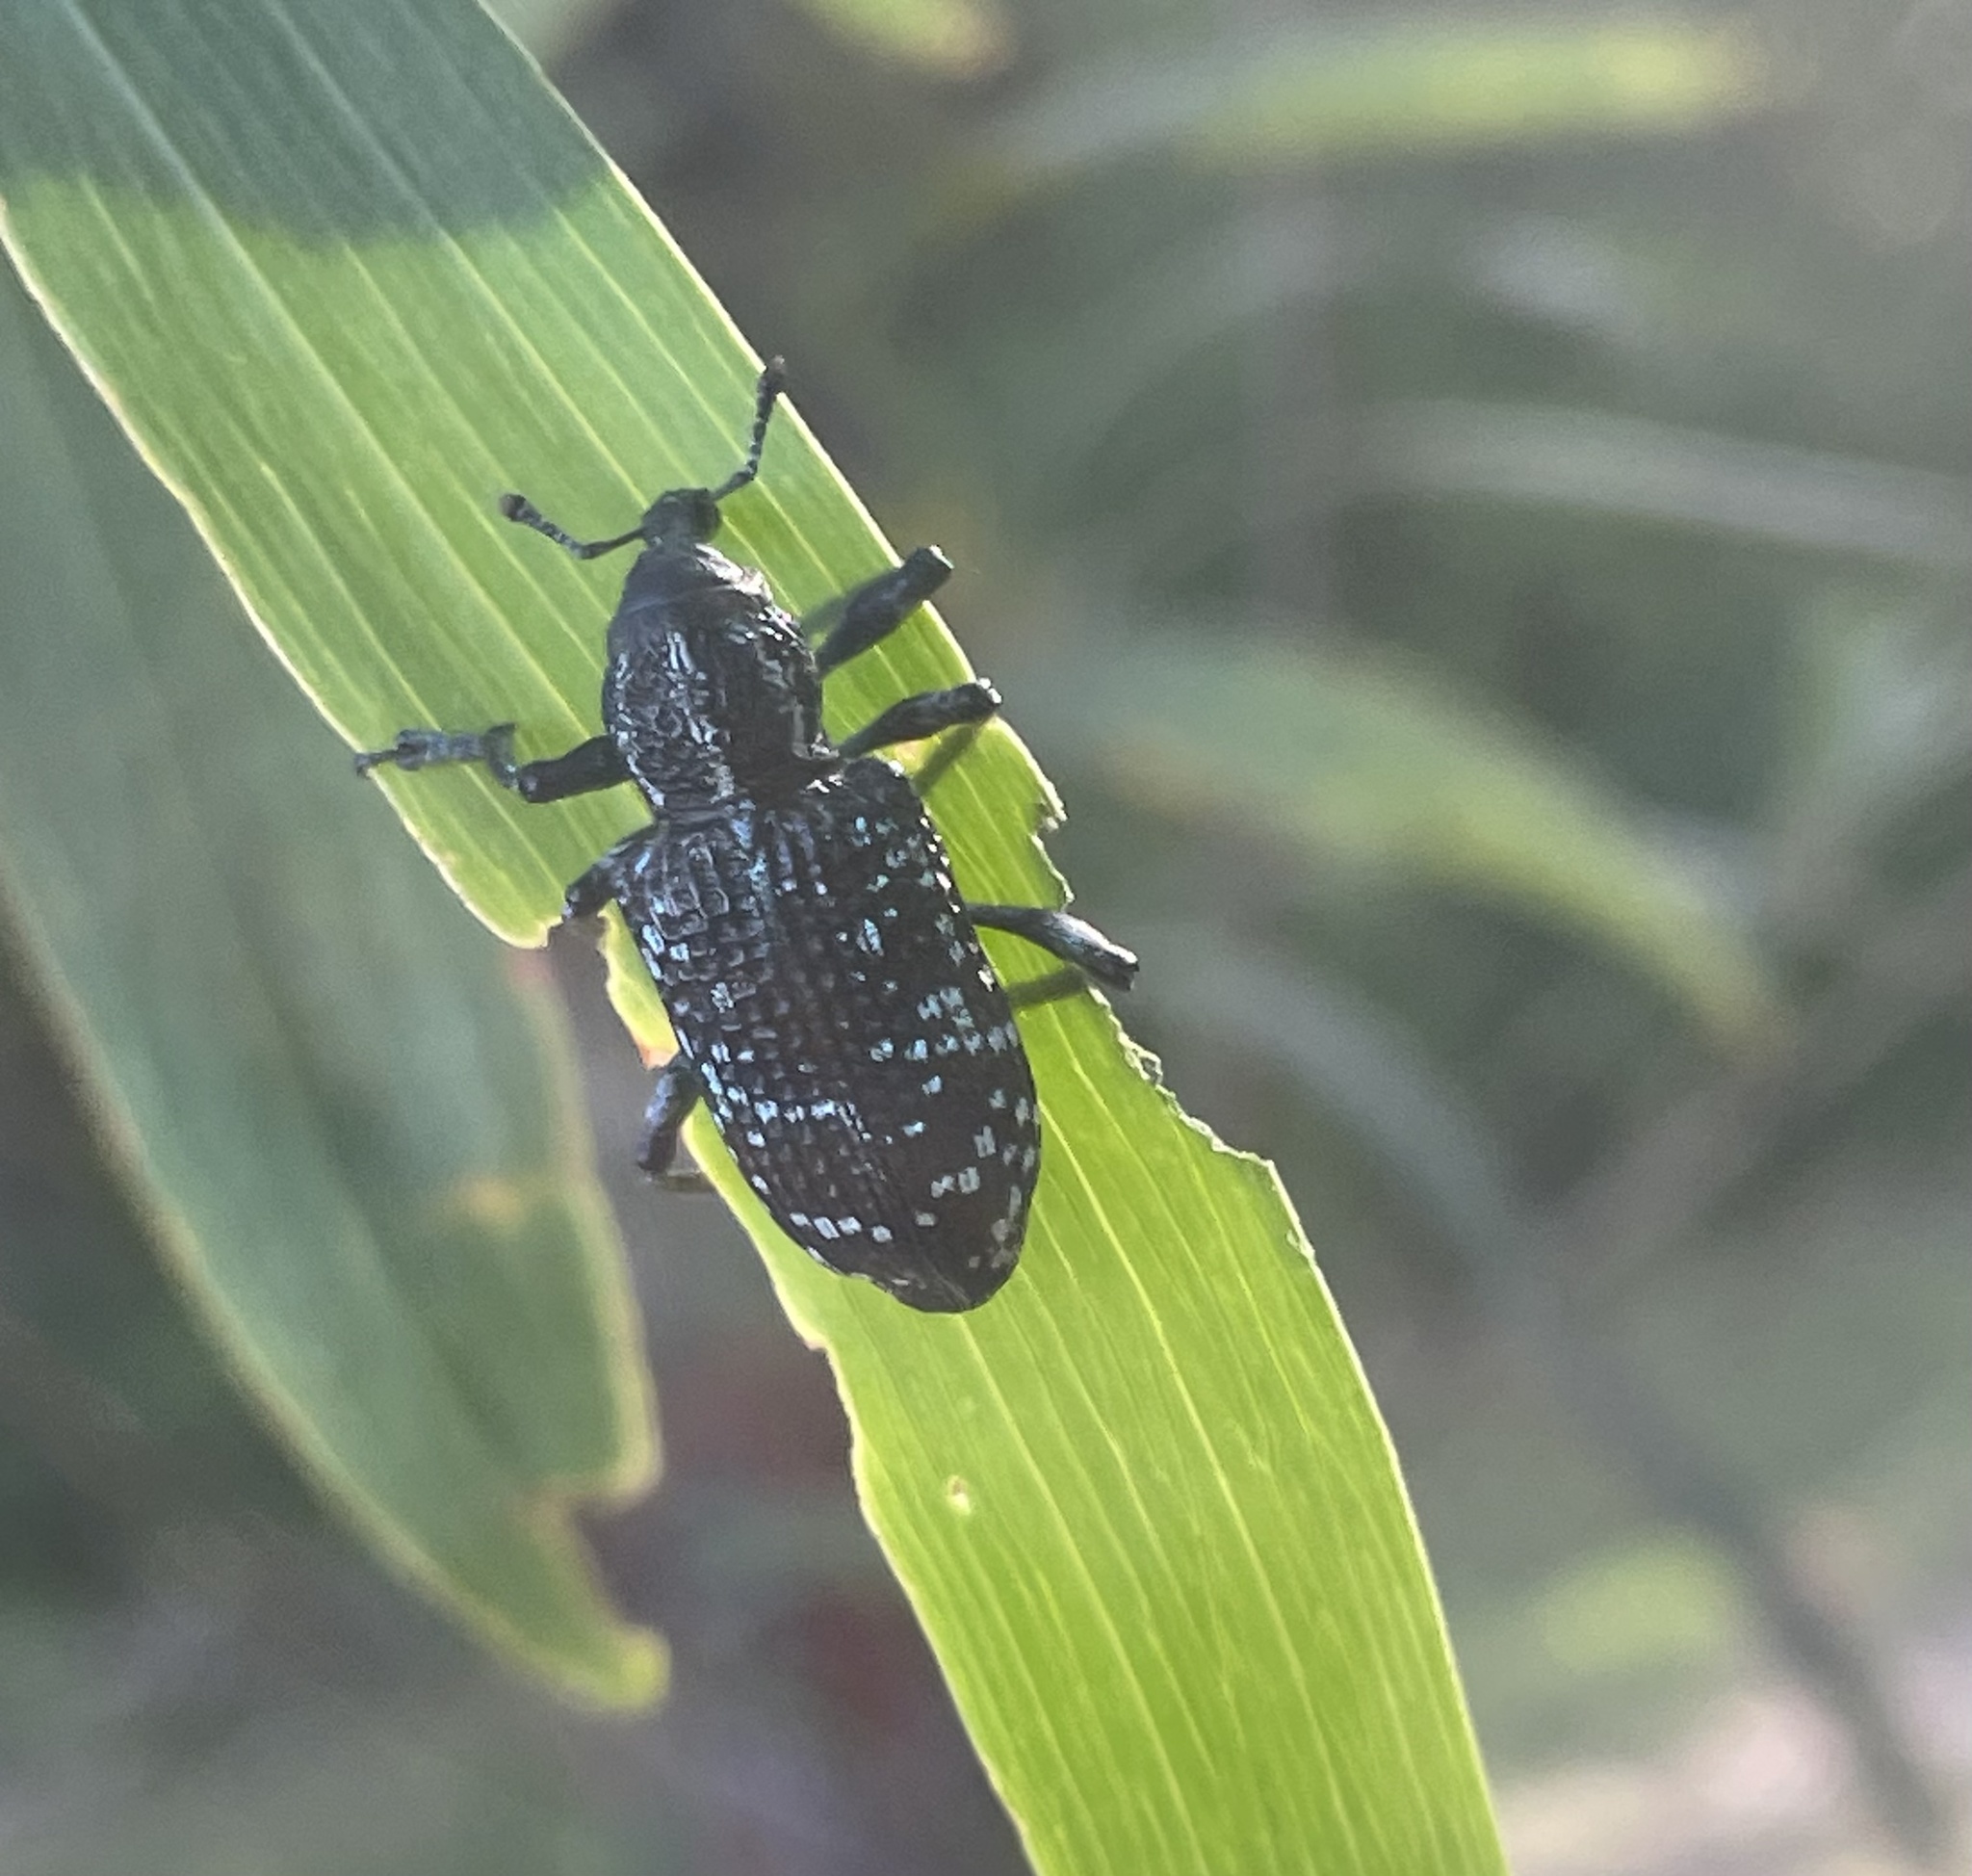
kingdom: Animalia
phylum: Arthropoda
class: Insecta
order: Coleoptera
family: Curculionidae
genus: Chrysolopus
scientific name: Chrysolopus spectabilis
